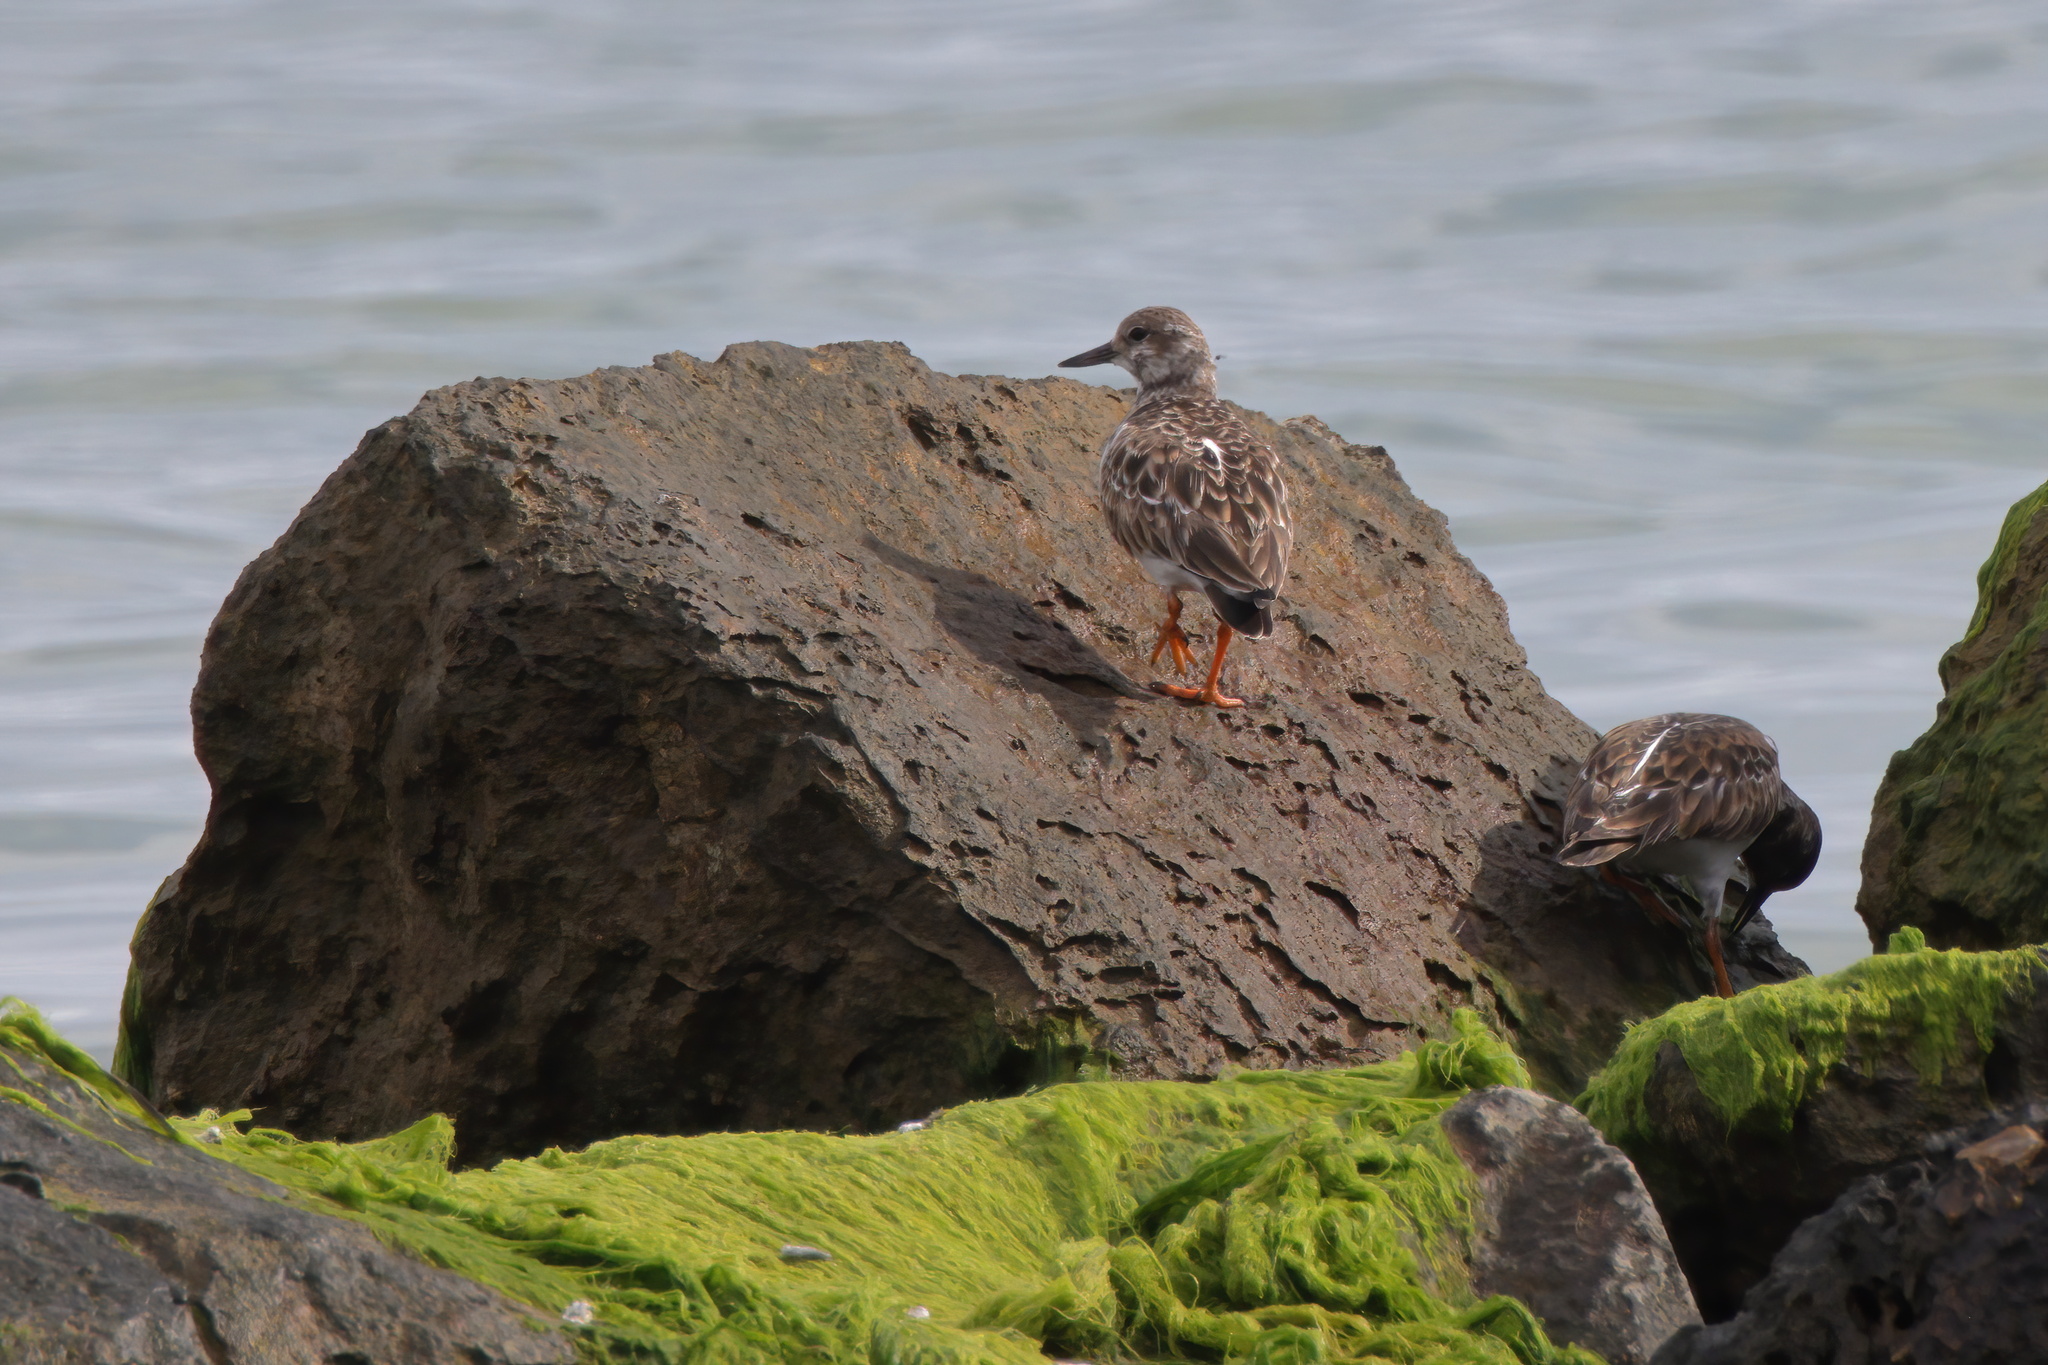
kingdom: Animalia
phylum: Chordata
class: Aves
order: Charadriiformes
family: Scolopacidae
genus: Arenaria
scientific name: Arenaria interpres
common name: Ruddy turnstone
